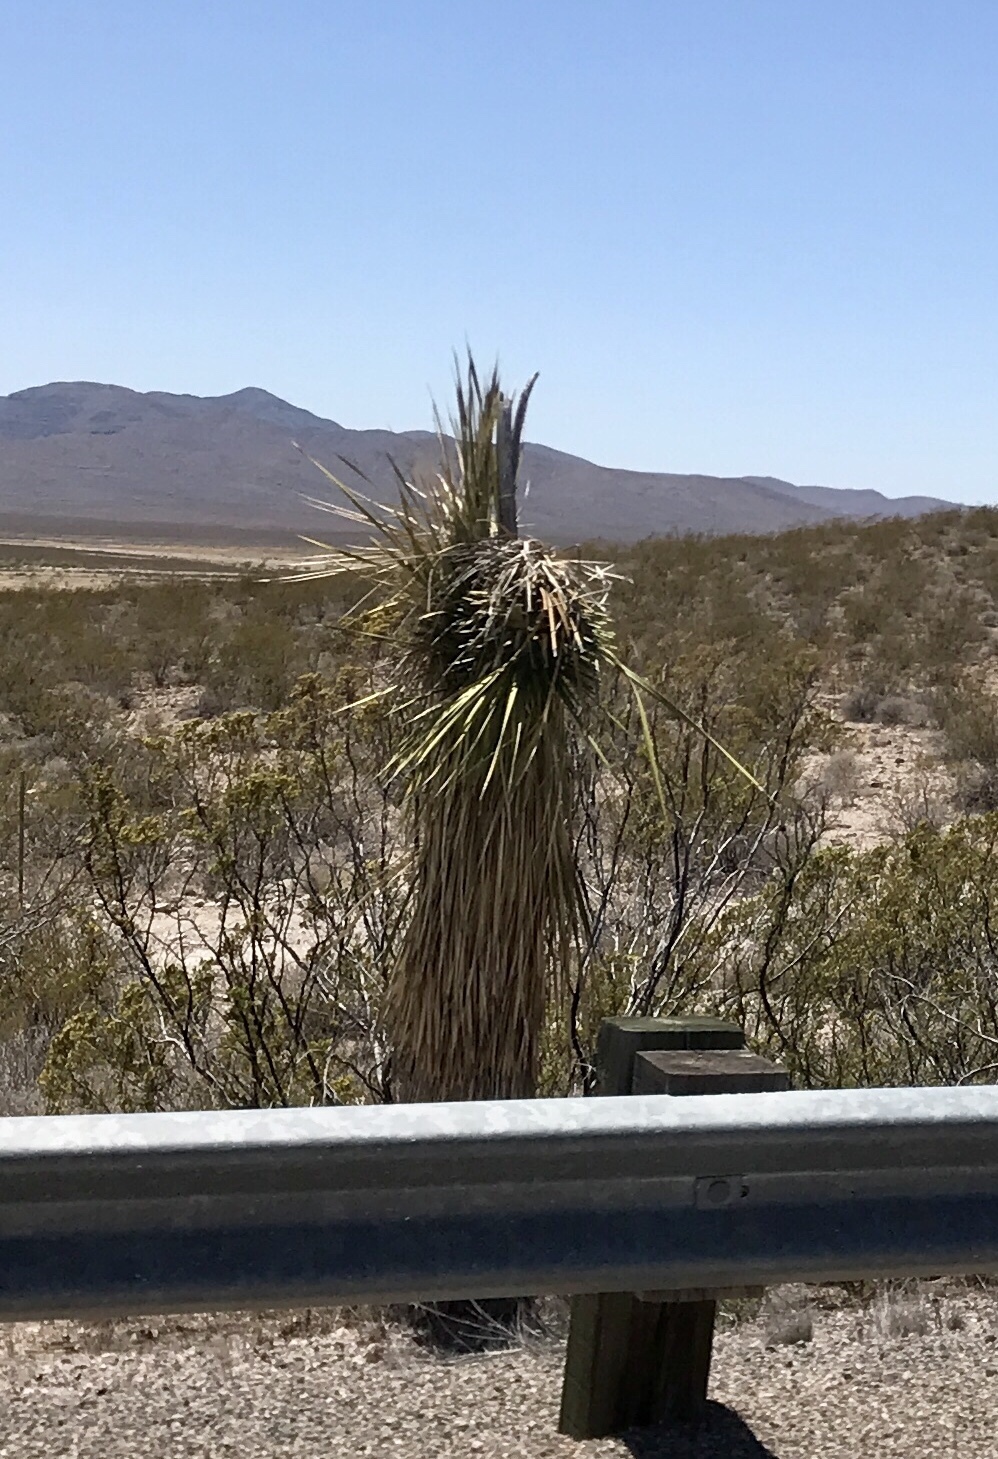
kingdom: Plantae
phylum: Tracheophyta
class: Liliopsida
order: Asparagales
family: Asparagaceae
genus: Yucca
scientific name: Yucca elata
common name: Palmella
